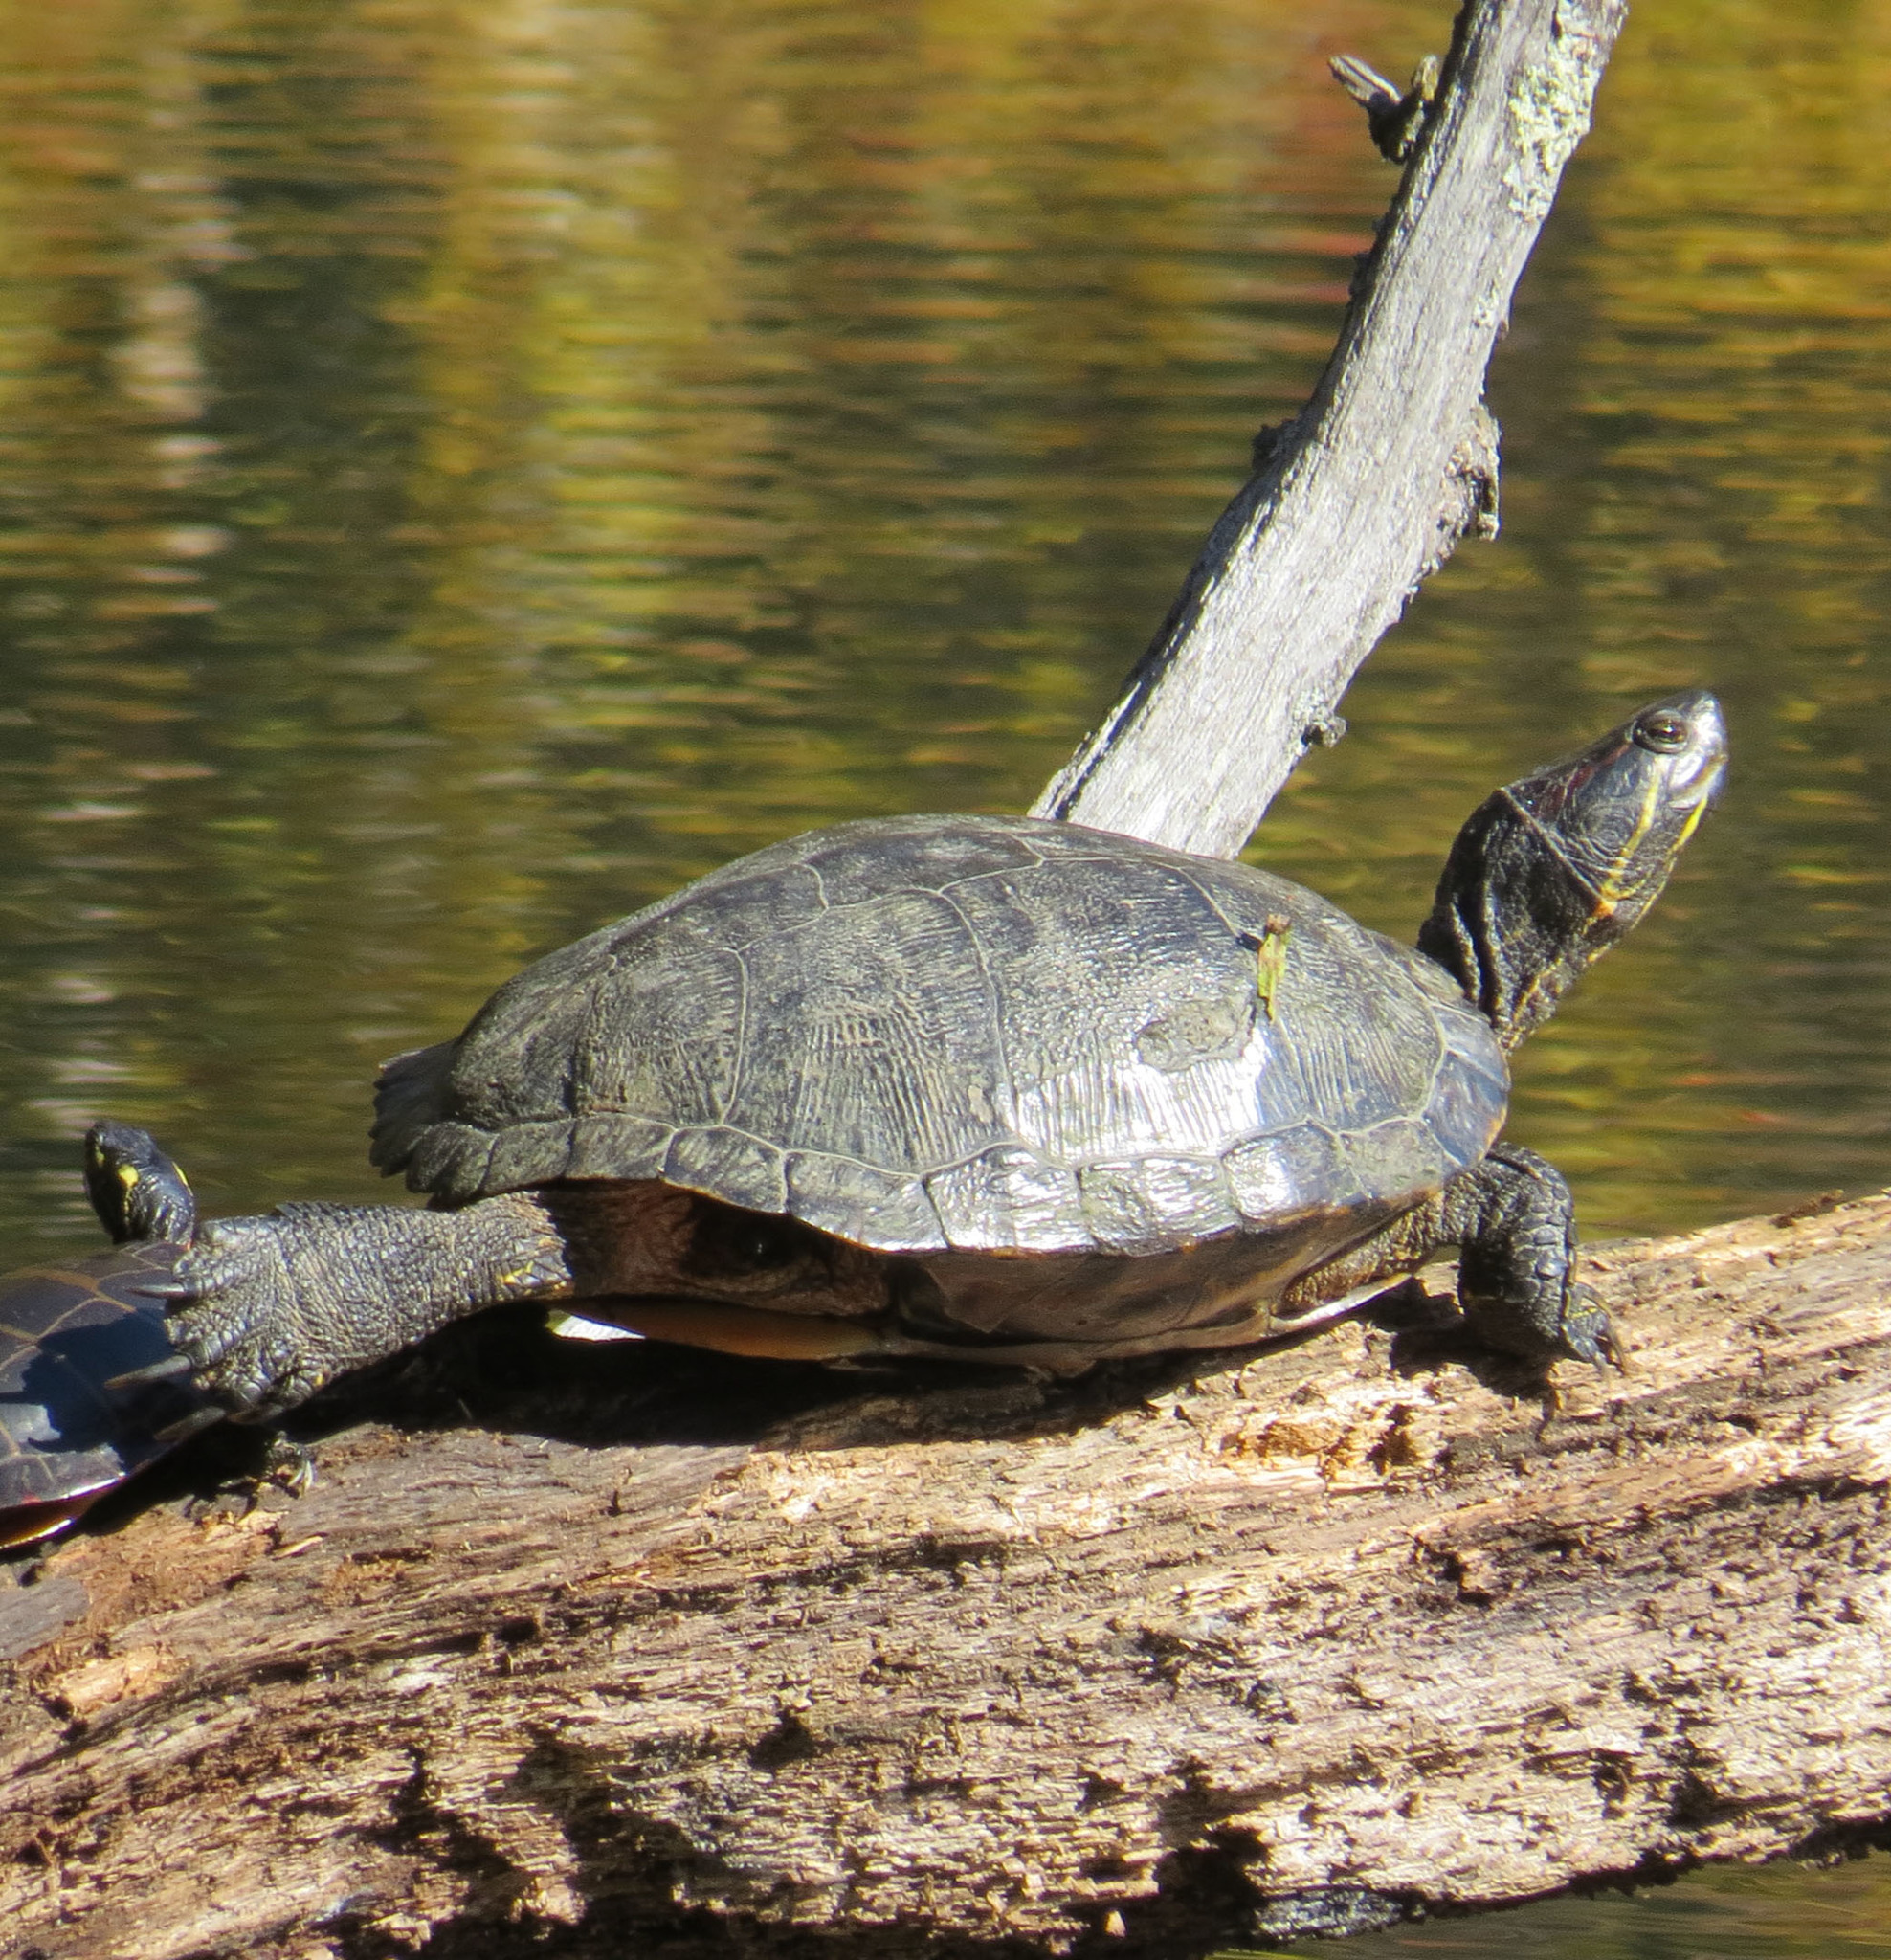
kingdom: Animalia
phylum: Chordata
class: Testudines
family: Emydidae
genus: Trachemys
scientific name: Trachemys scripta
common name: Slider
